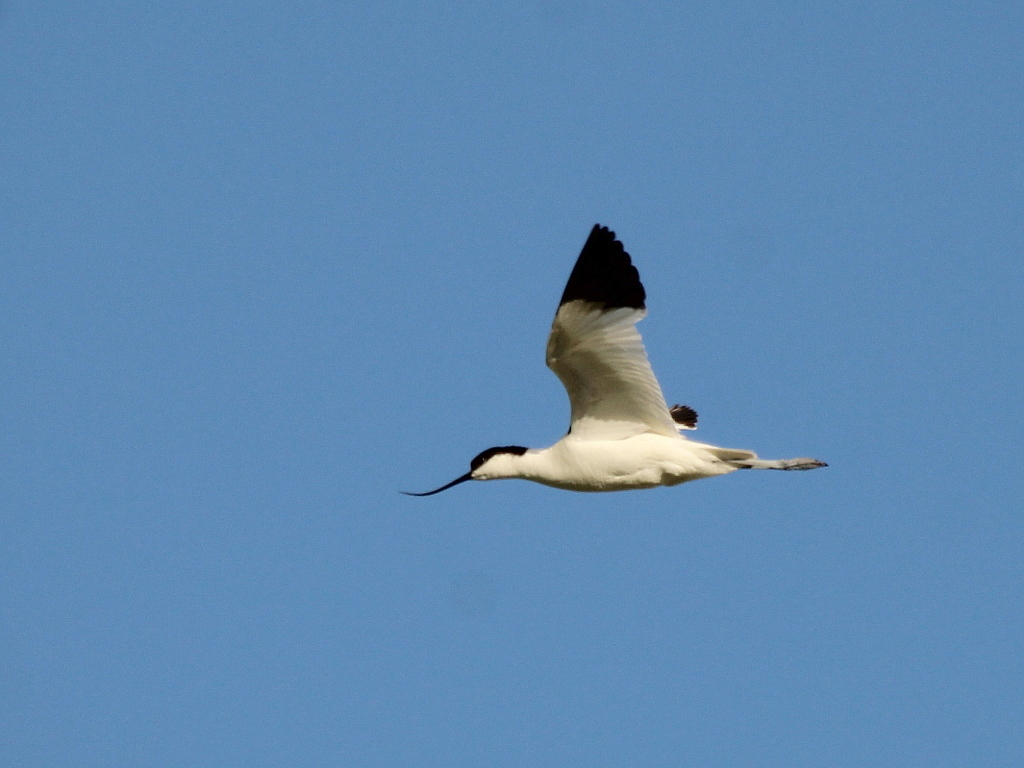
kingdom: Animalia
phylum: Chordata
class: Aves
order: Charadriiformes
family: Recurvirostridae
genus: Recurvirostra
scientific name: Recurvirostra avosetta
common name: Pied avocet
